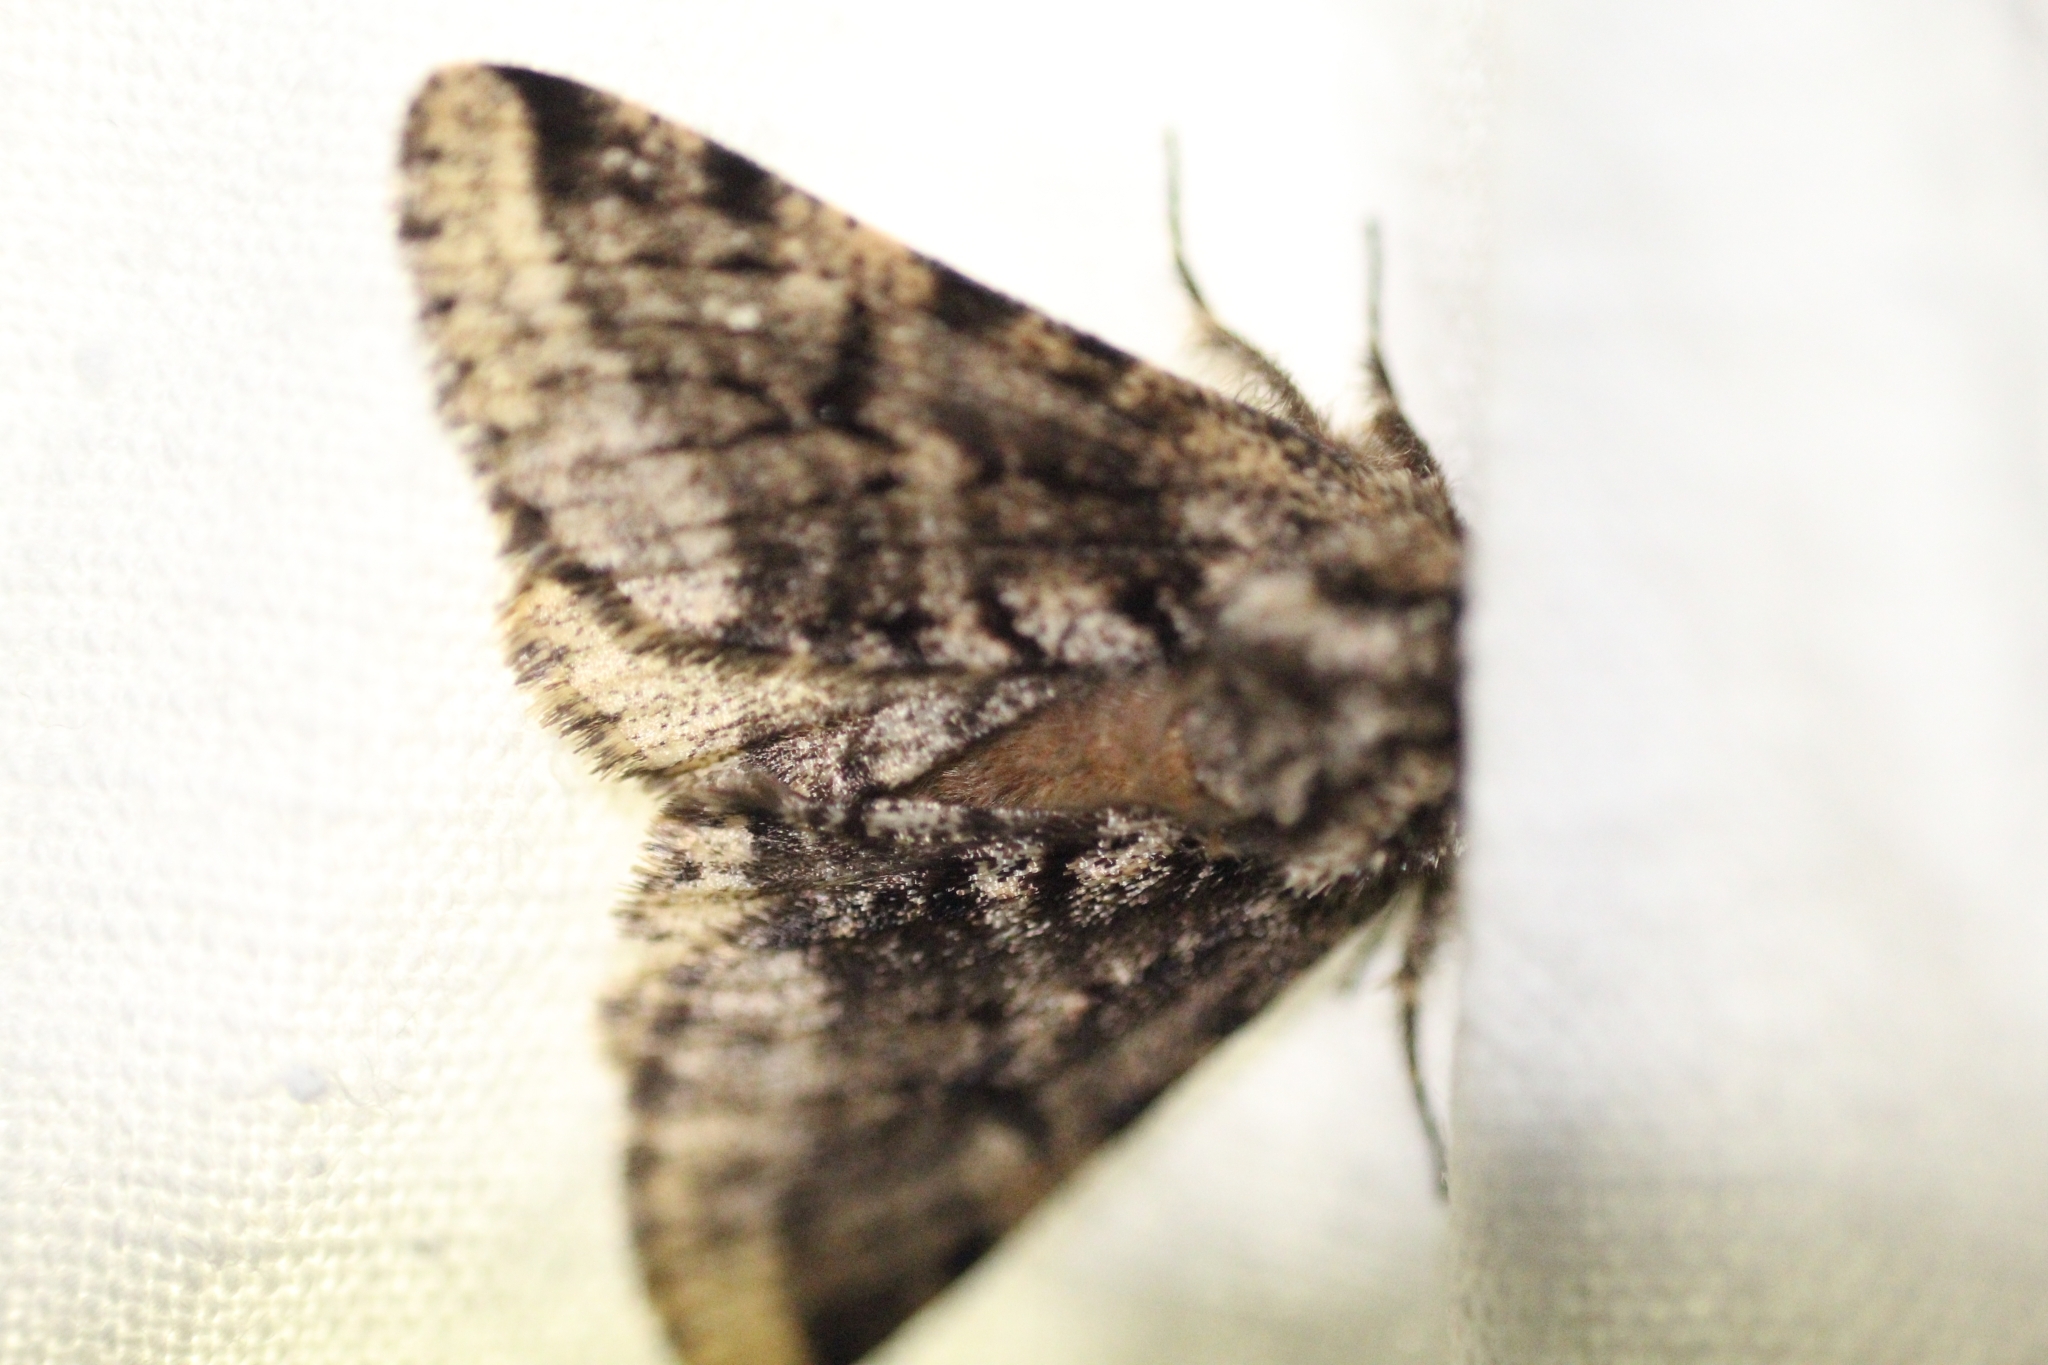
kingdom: Animalia
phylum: Arthropoda
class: Insecta
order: Lepidoptera
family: Geometridae
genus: Lycia
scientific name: Lycia hirtaria
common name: Brindled beauty
